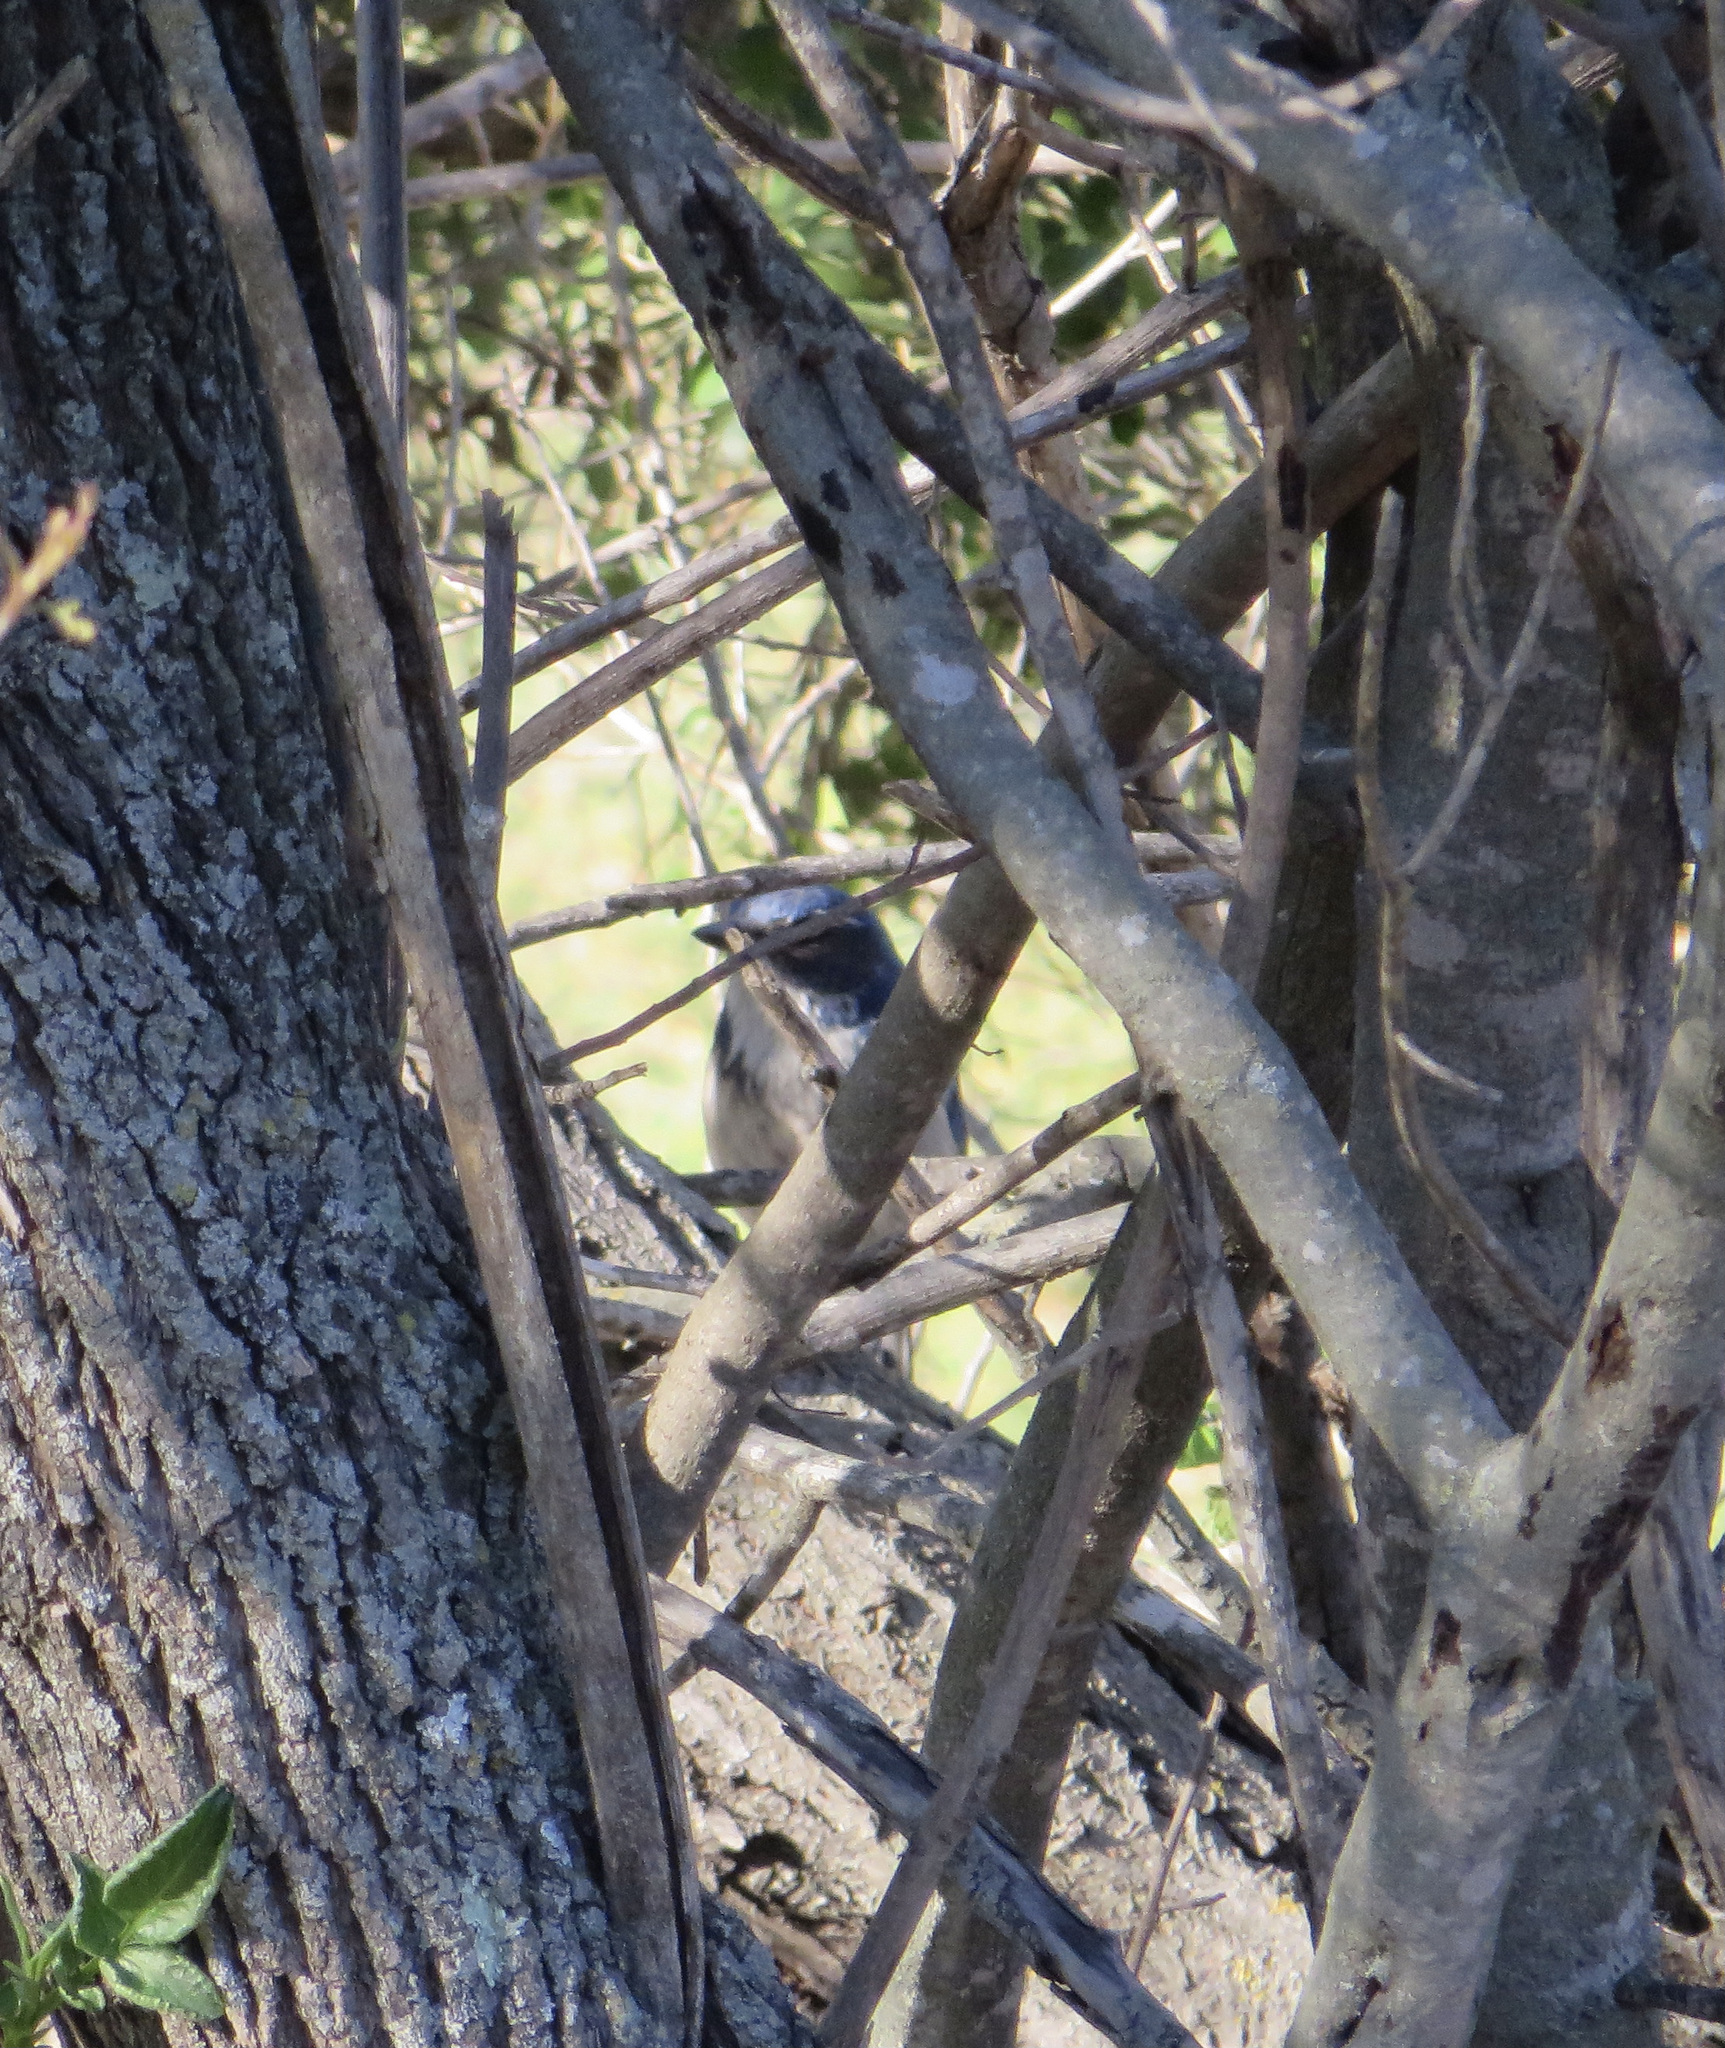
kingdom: Animalia
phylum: Chordata
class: Aves
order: Passeriformes
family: Corvidae
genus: Aphelocoma
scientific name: Aphelocoma californica
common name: California scrub-jay
